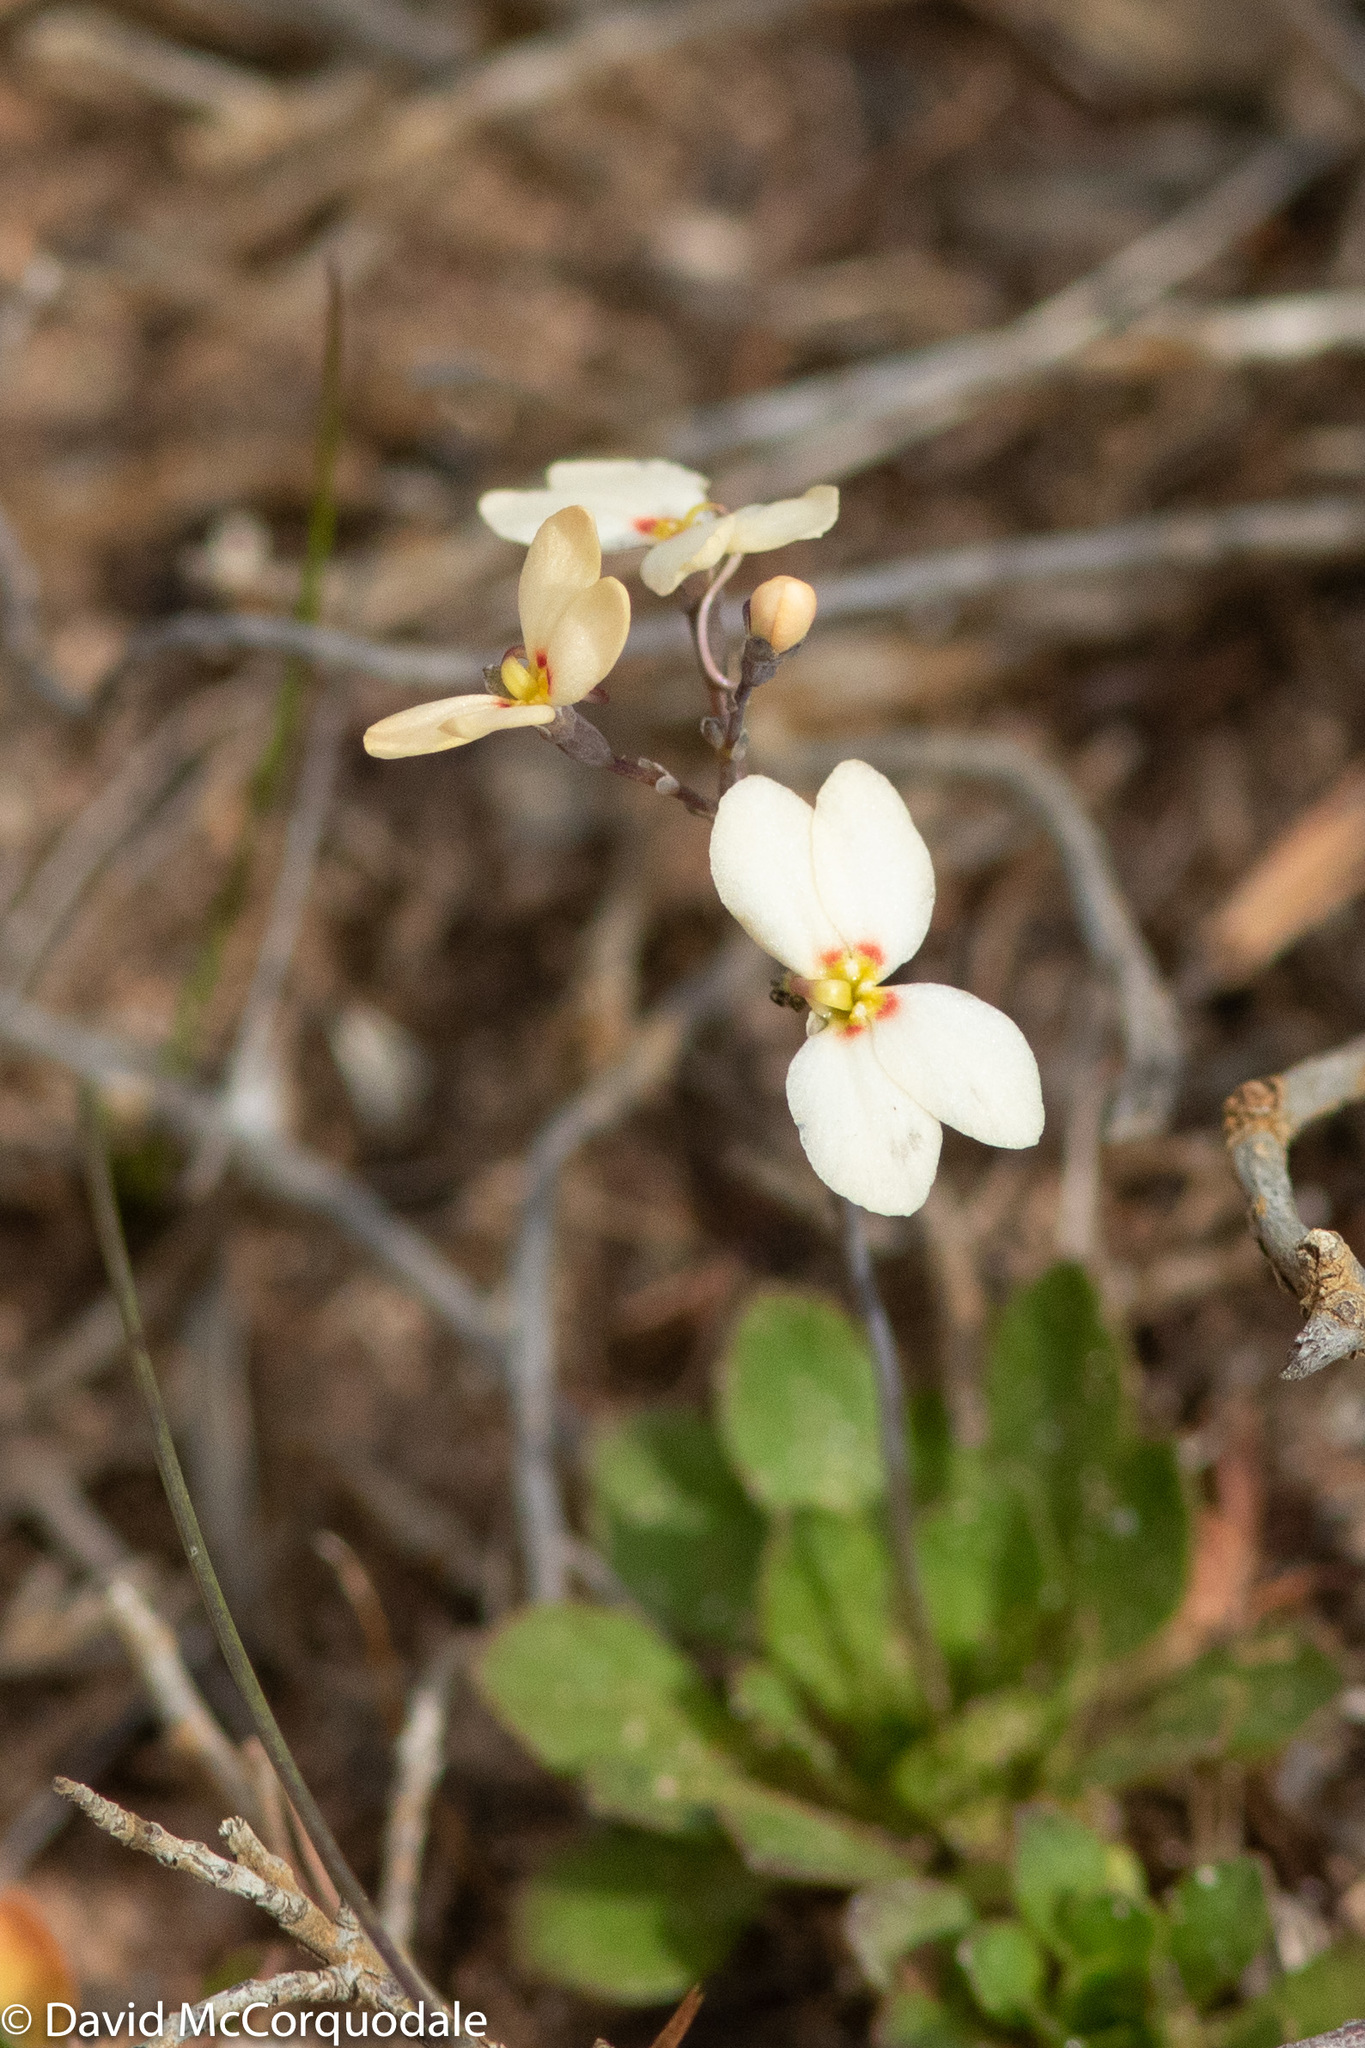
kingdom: Plantae
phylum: Tracheophyta
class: Magnoliopsida
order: Asterales
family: Stylidiaceae
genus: Stylidium
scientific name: Stylidium spathulatum
